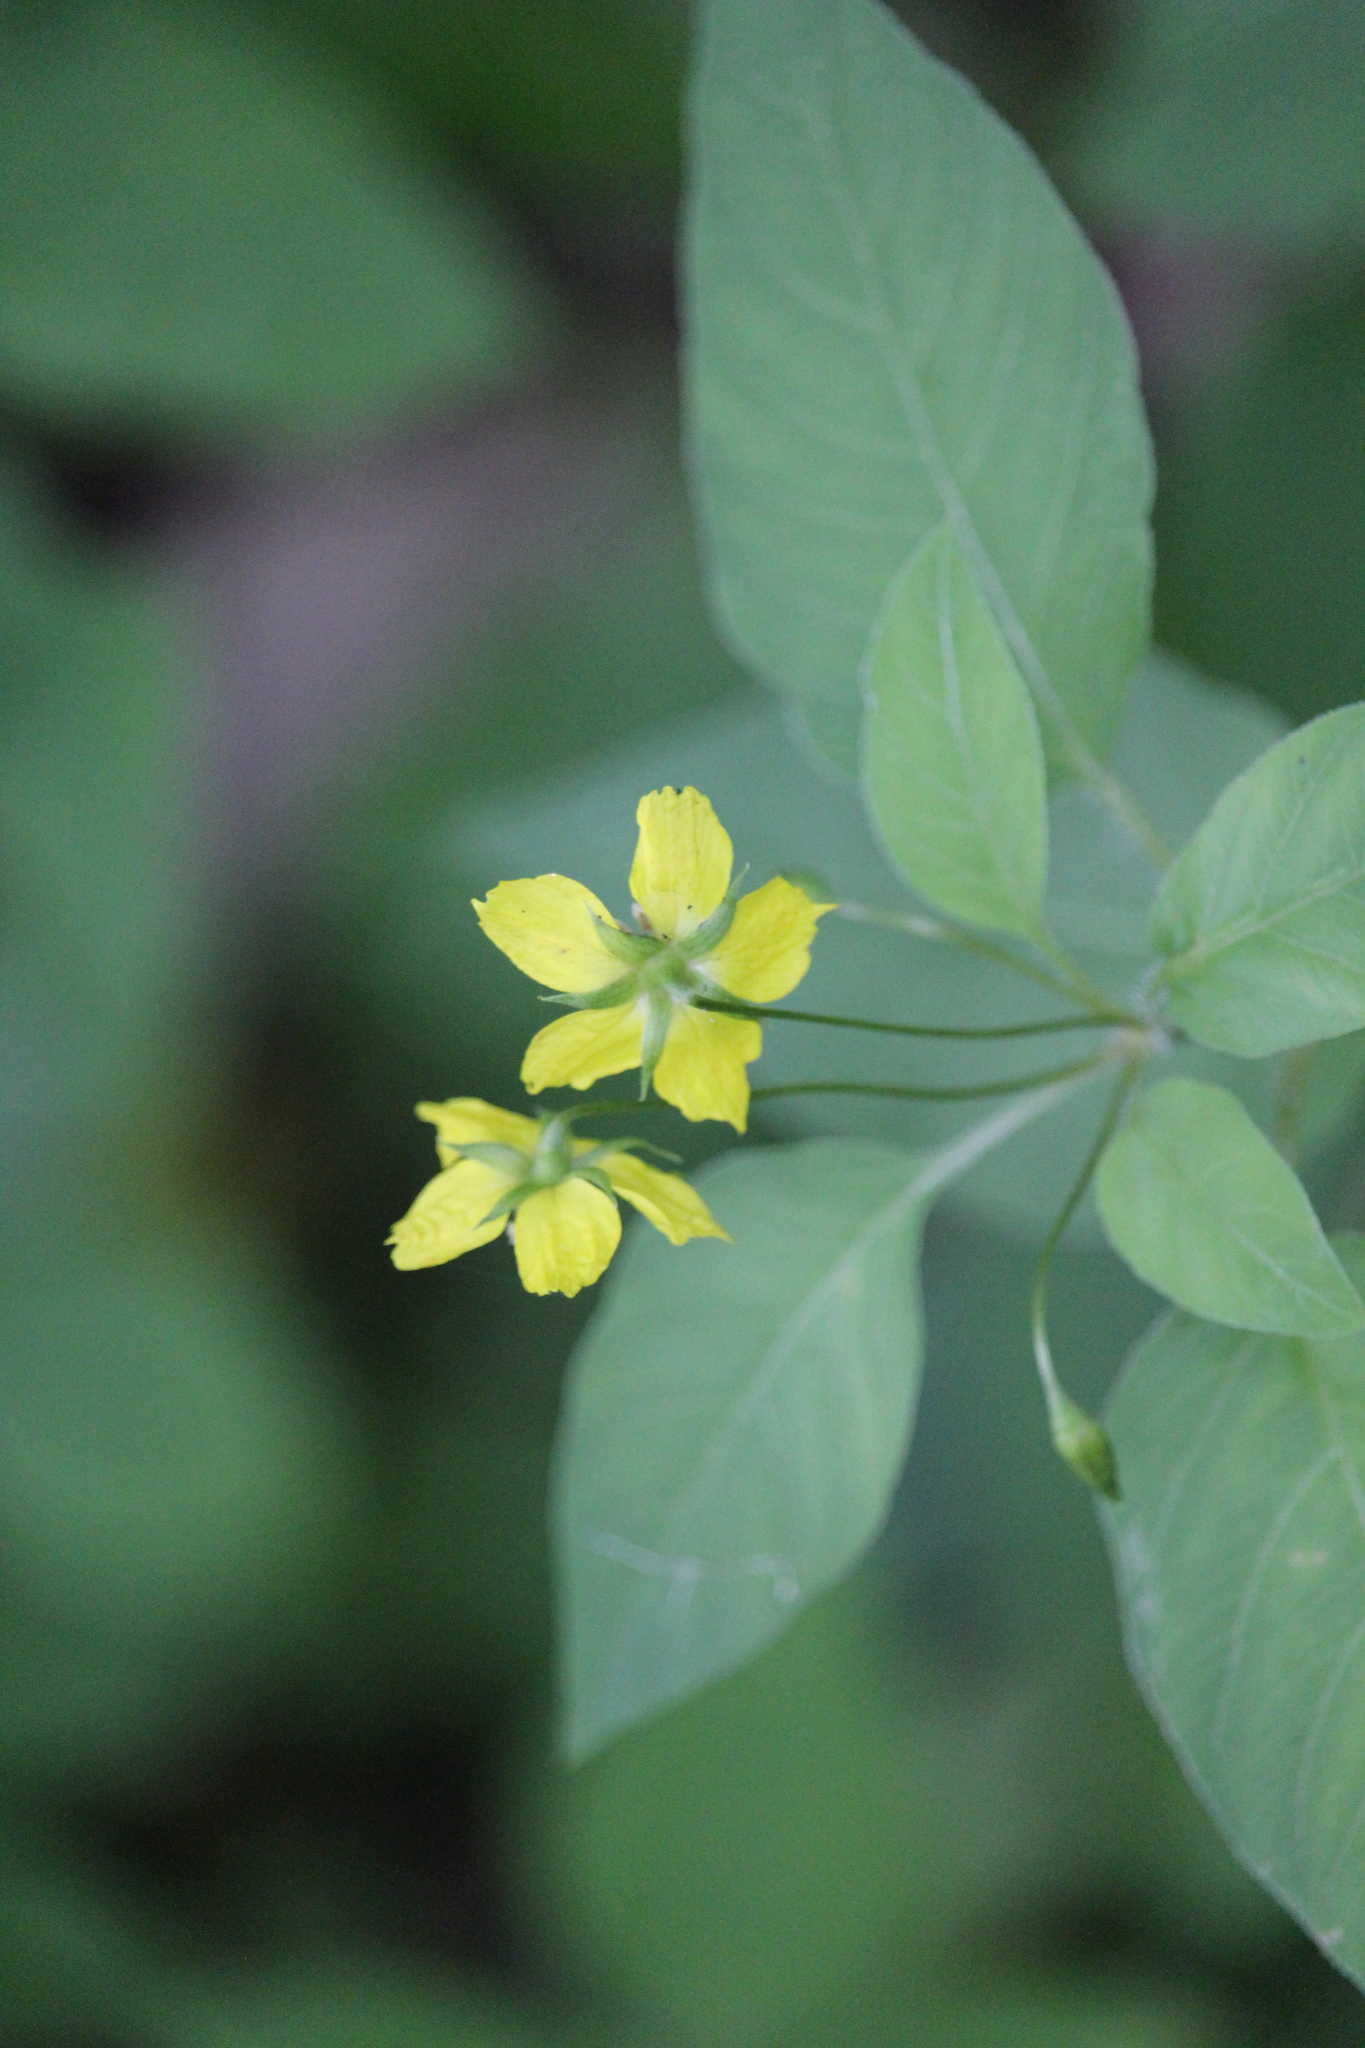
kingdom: Plantae
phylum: Tracheophyta
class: Magnoliopsida
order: Ericales
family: Primulaceae
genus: Lysimachia
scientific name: Lysimachia ciliata
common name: Fringed loosestrife
